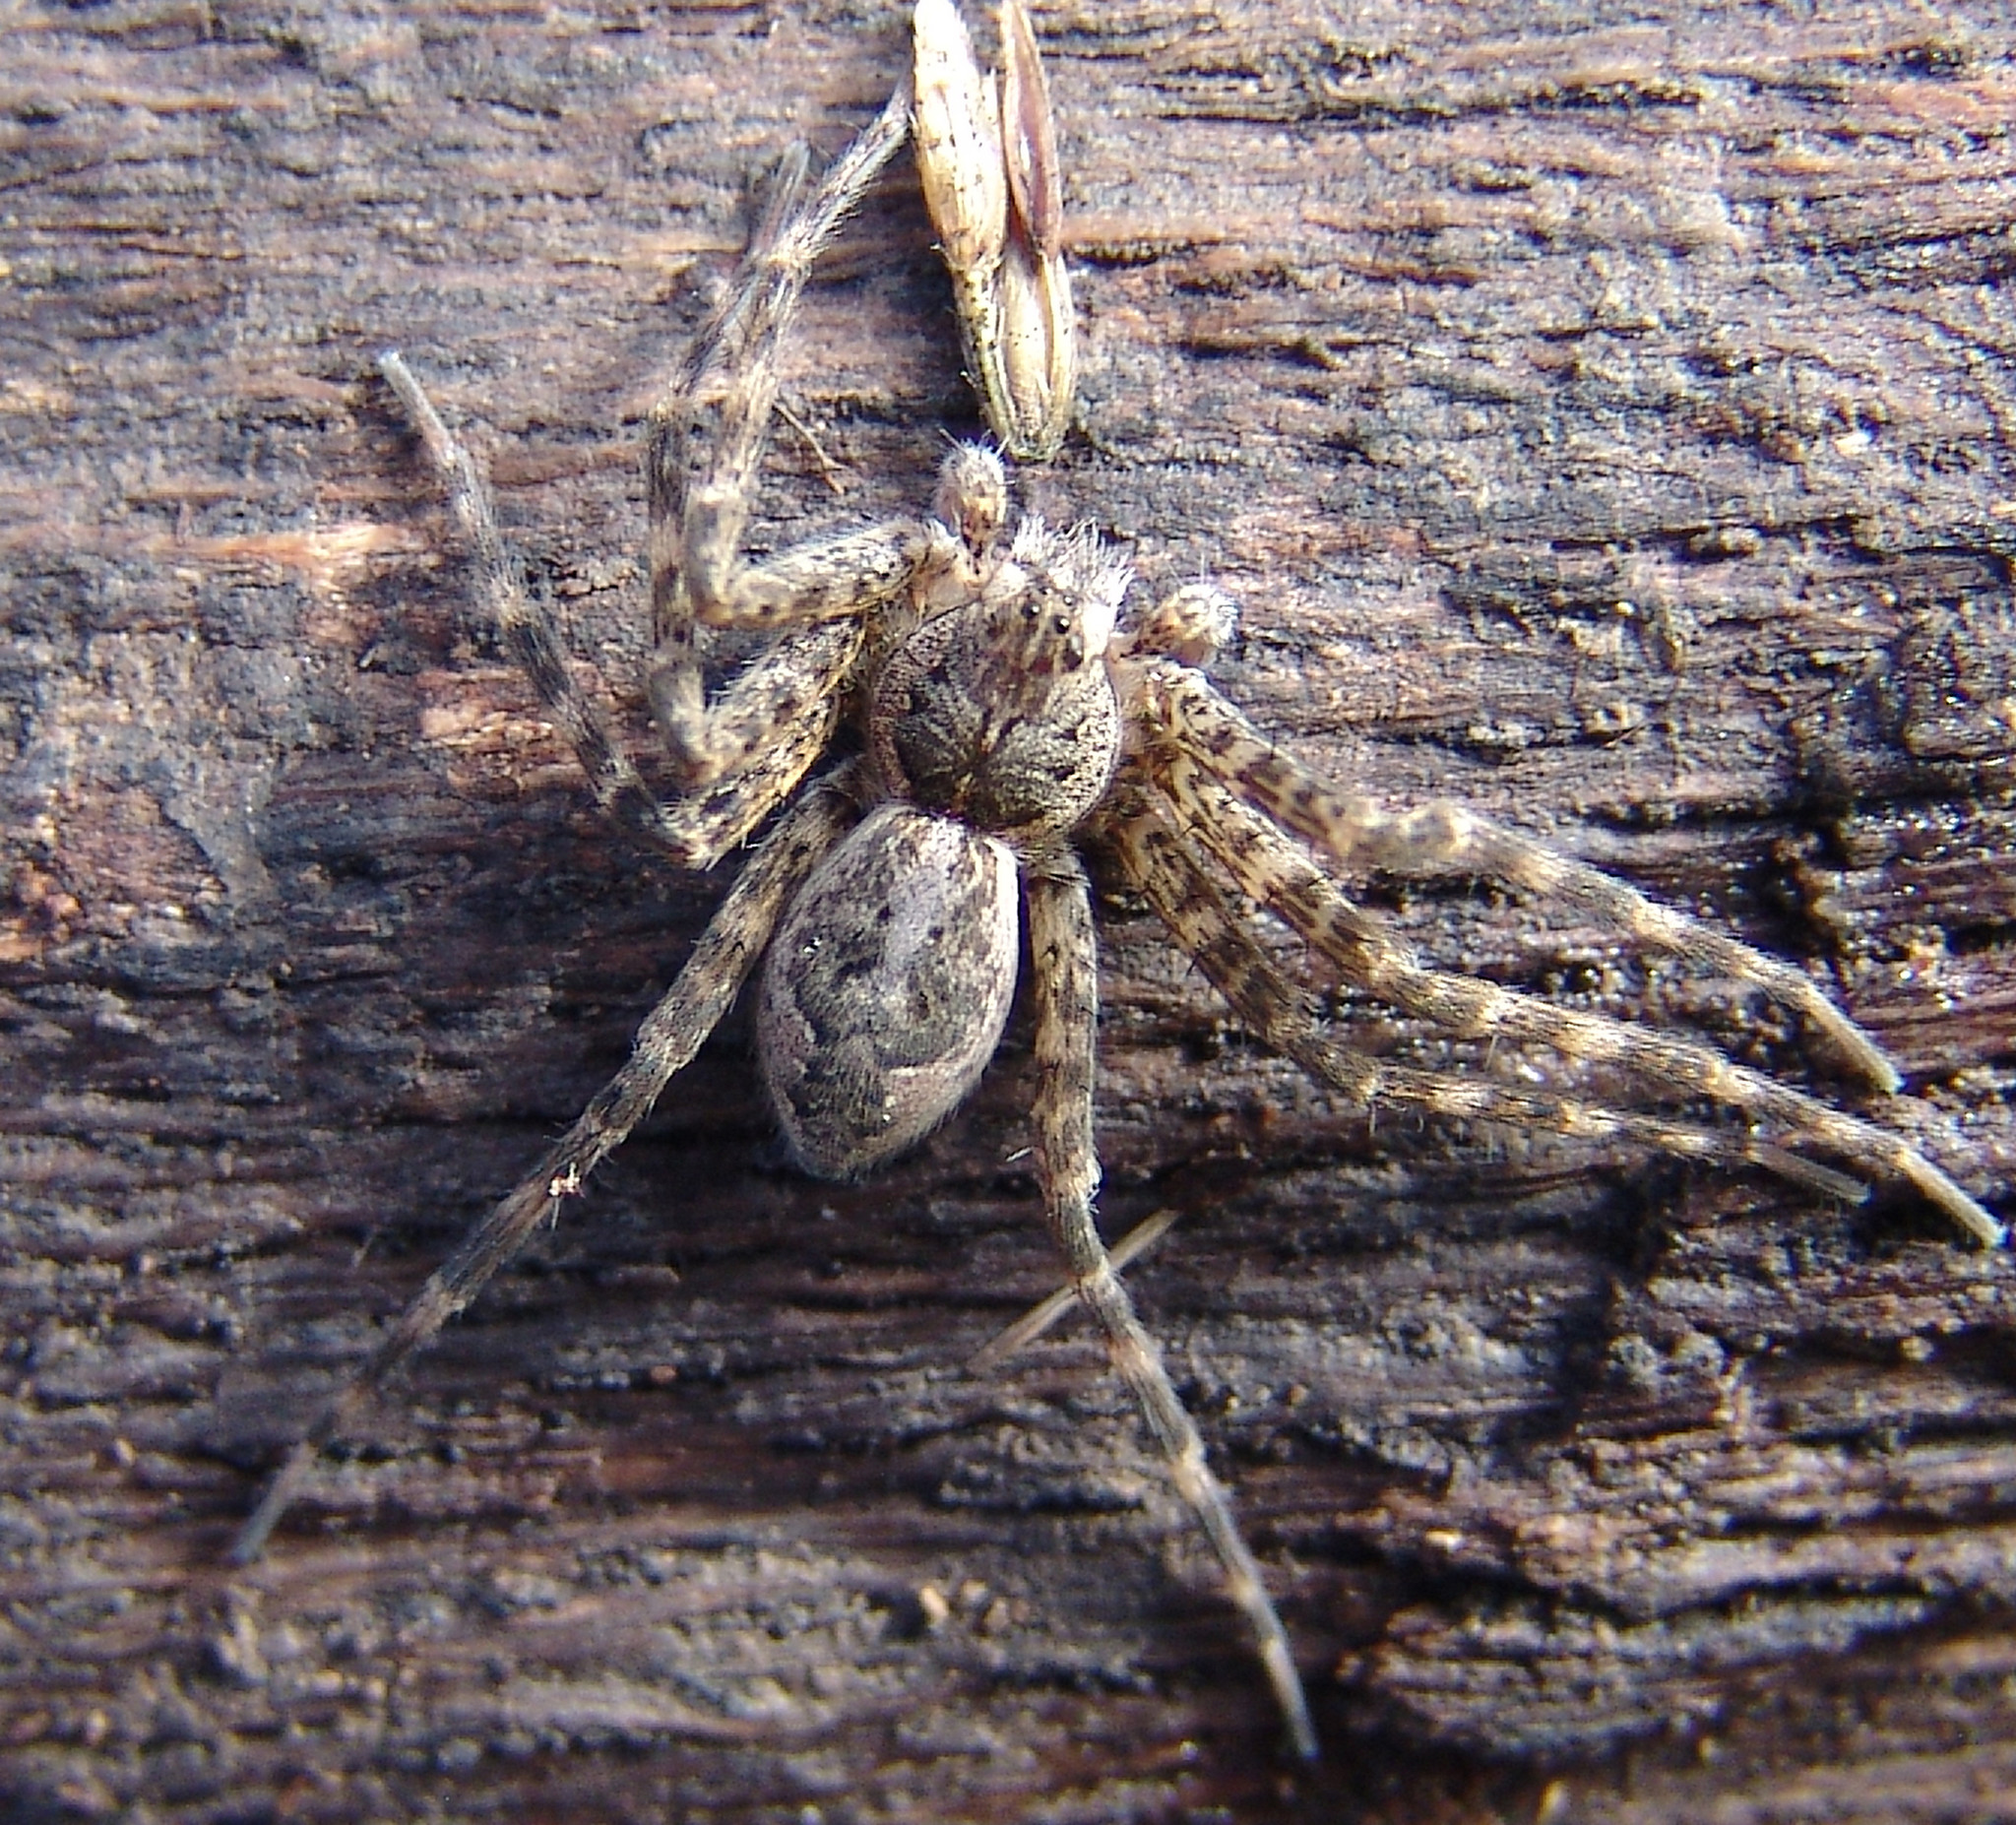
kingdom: Animalia
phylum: Arthropoda
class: Arachnida
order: Araneae
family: Pisauridae
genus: Dolomedes
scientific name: Dolomedes tenebrosus
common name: Dark fishing spider
